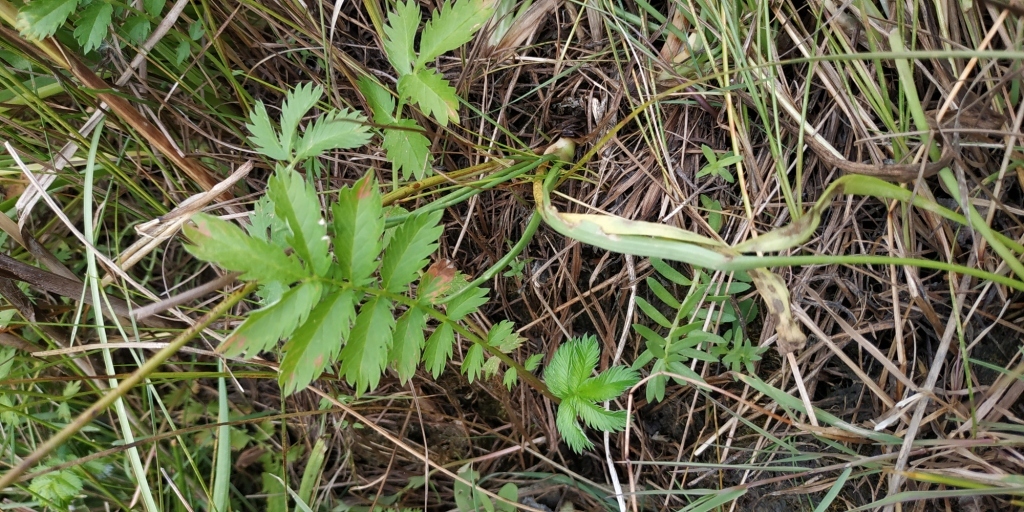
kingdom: Plantae
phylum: Tracheophyta
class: Magnoliopsida
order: Rosales
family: Rosaceae
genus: Argentina
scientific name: Argentina anserina
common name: Common silverweed
